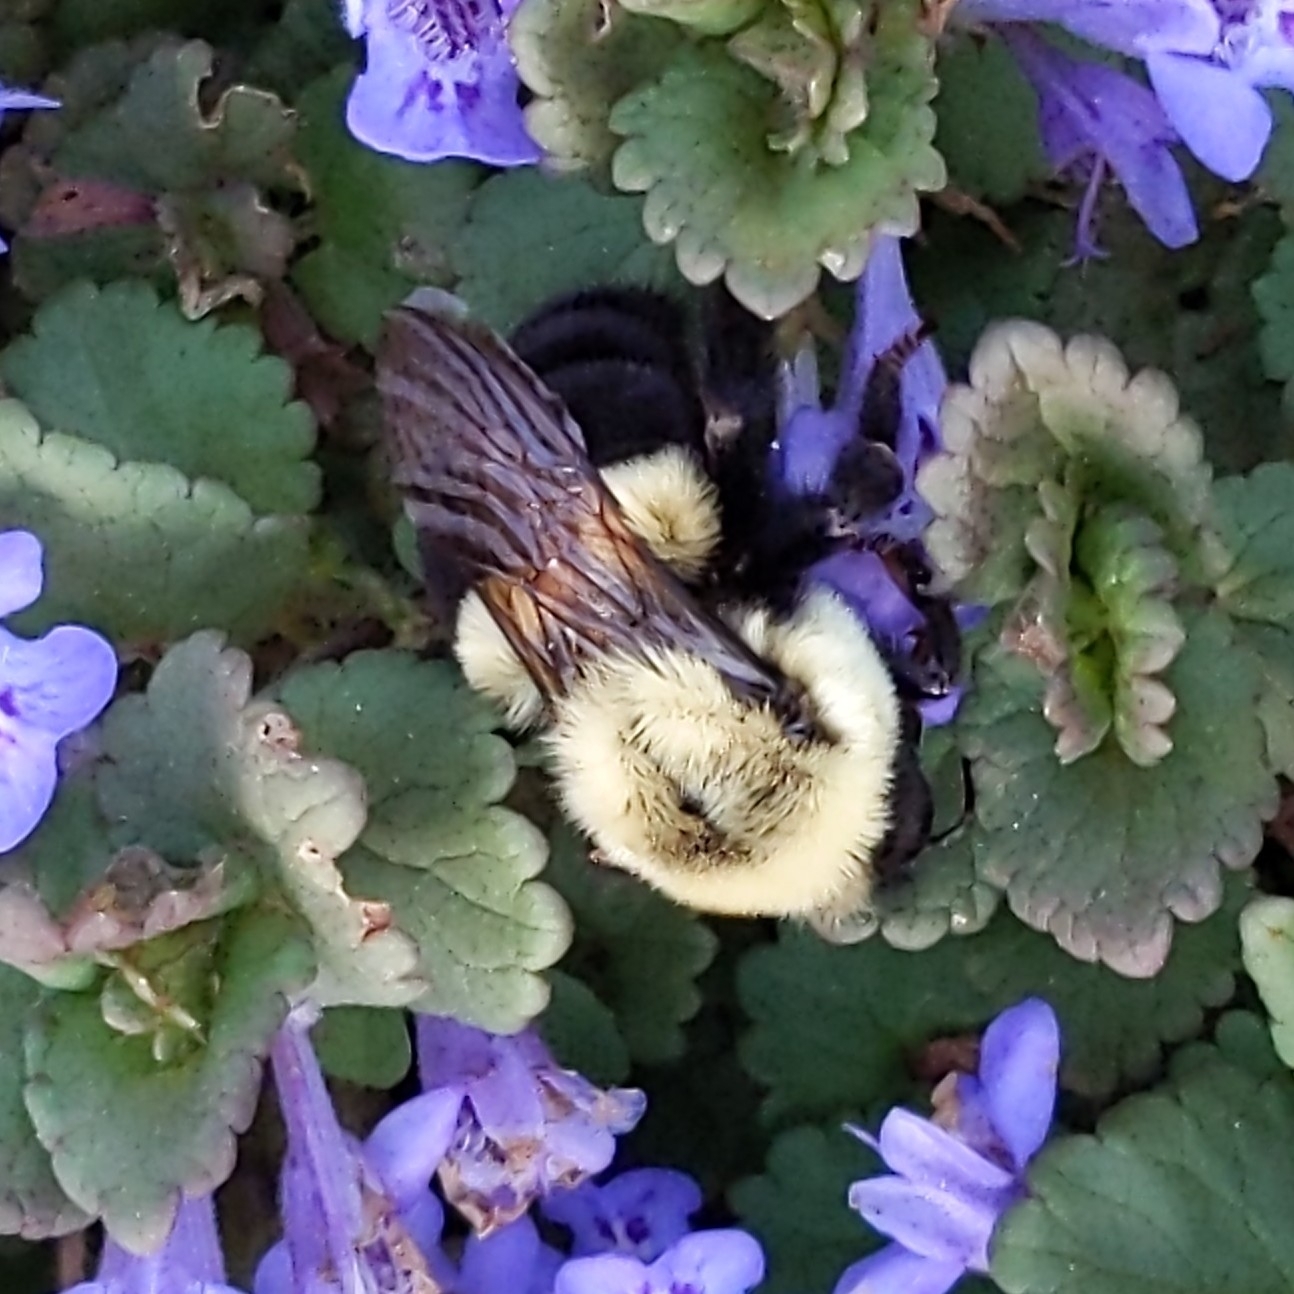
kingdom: Animalia
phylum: Arthropoda
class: Insecta
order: Hymenoptera
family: Apidae
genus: Bombus
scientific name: Bombus impatiens
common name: Common eastern bumble bee
